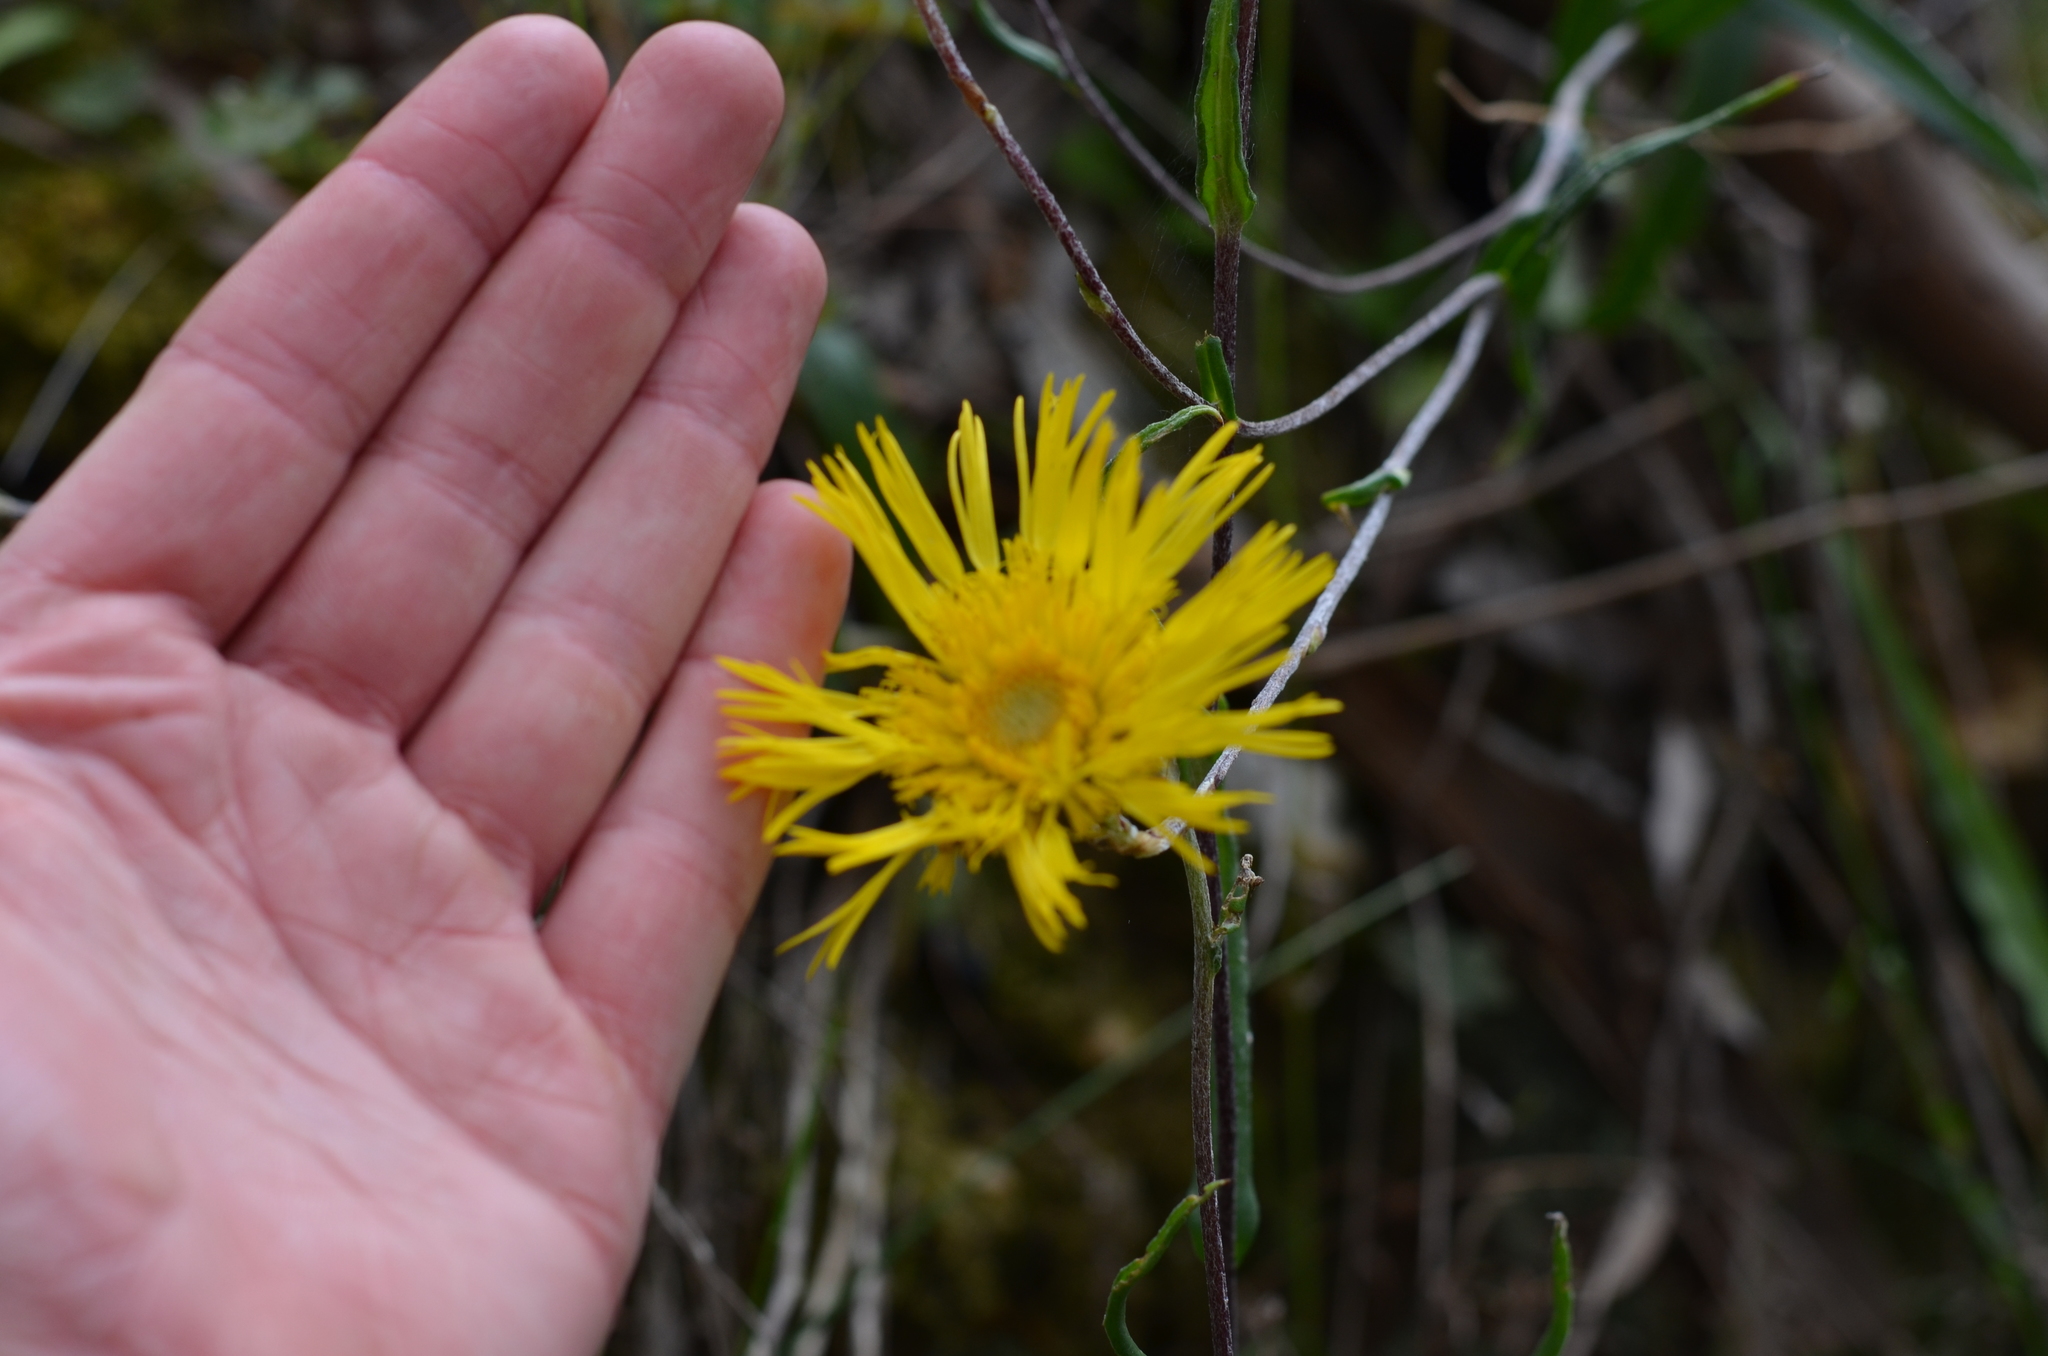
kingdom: Plantae
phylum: Tracheophyta
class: Magnoliopsida
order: Asterales
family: Asteraceae
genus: Podolepis
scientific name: Podolepis decipiens
